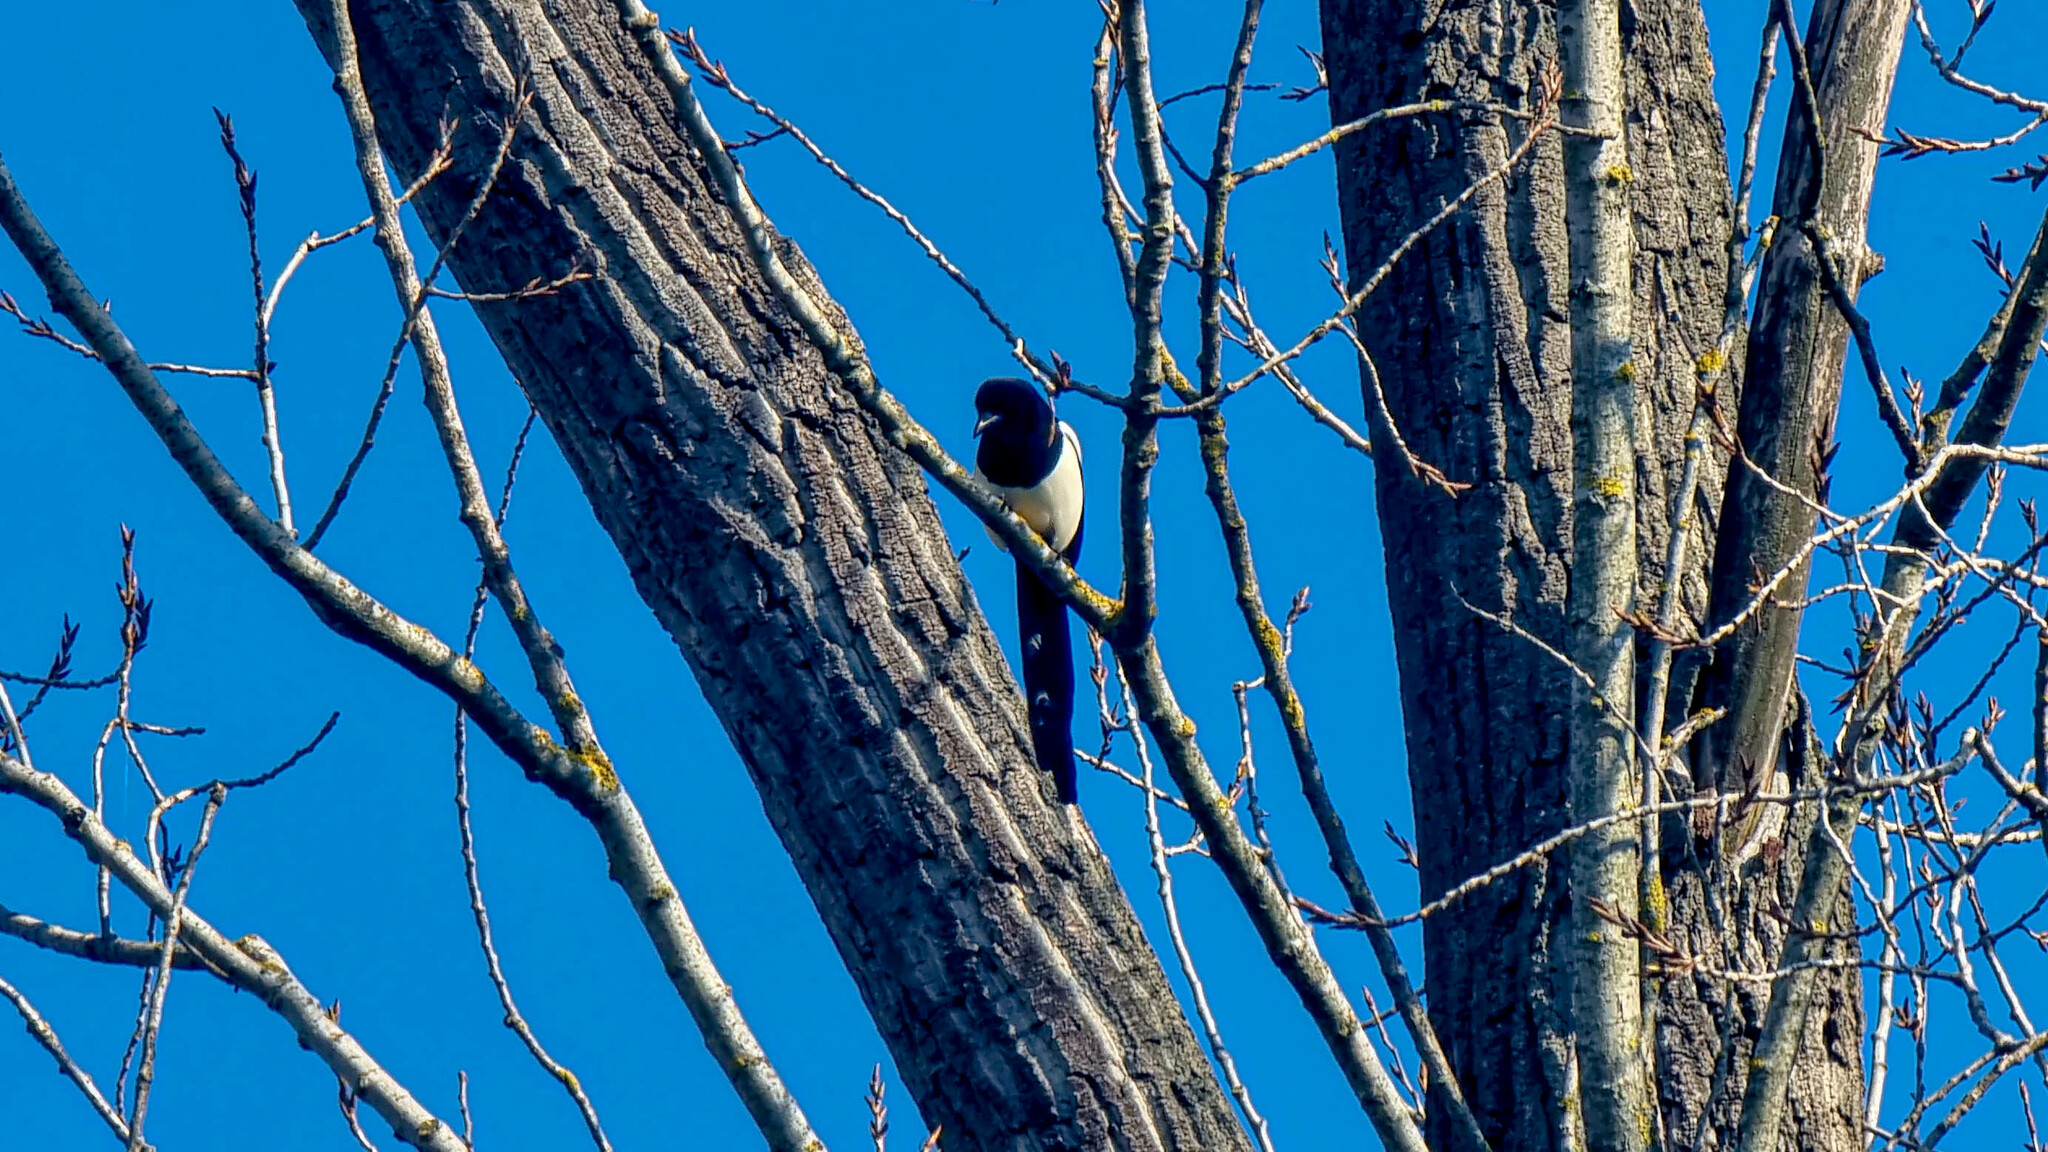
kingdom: Animalia
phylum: Chordata
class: Aves
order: Passeriformes
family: Corvidae
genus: Pica
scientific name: Pica pica
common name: Eurasian magpie
